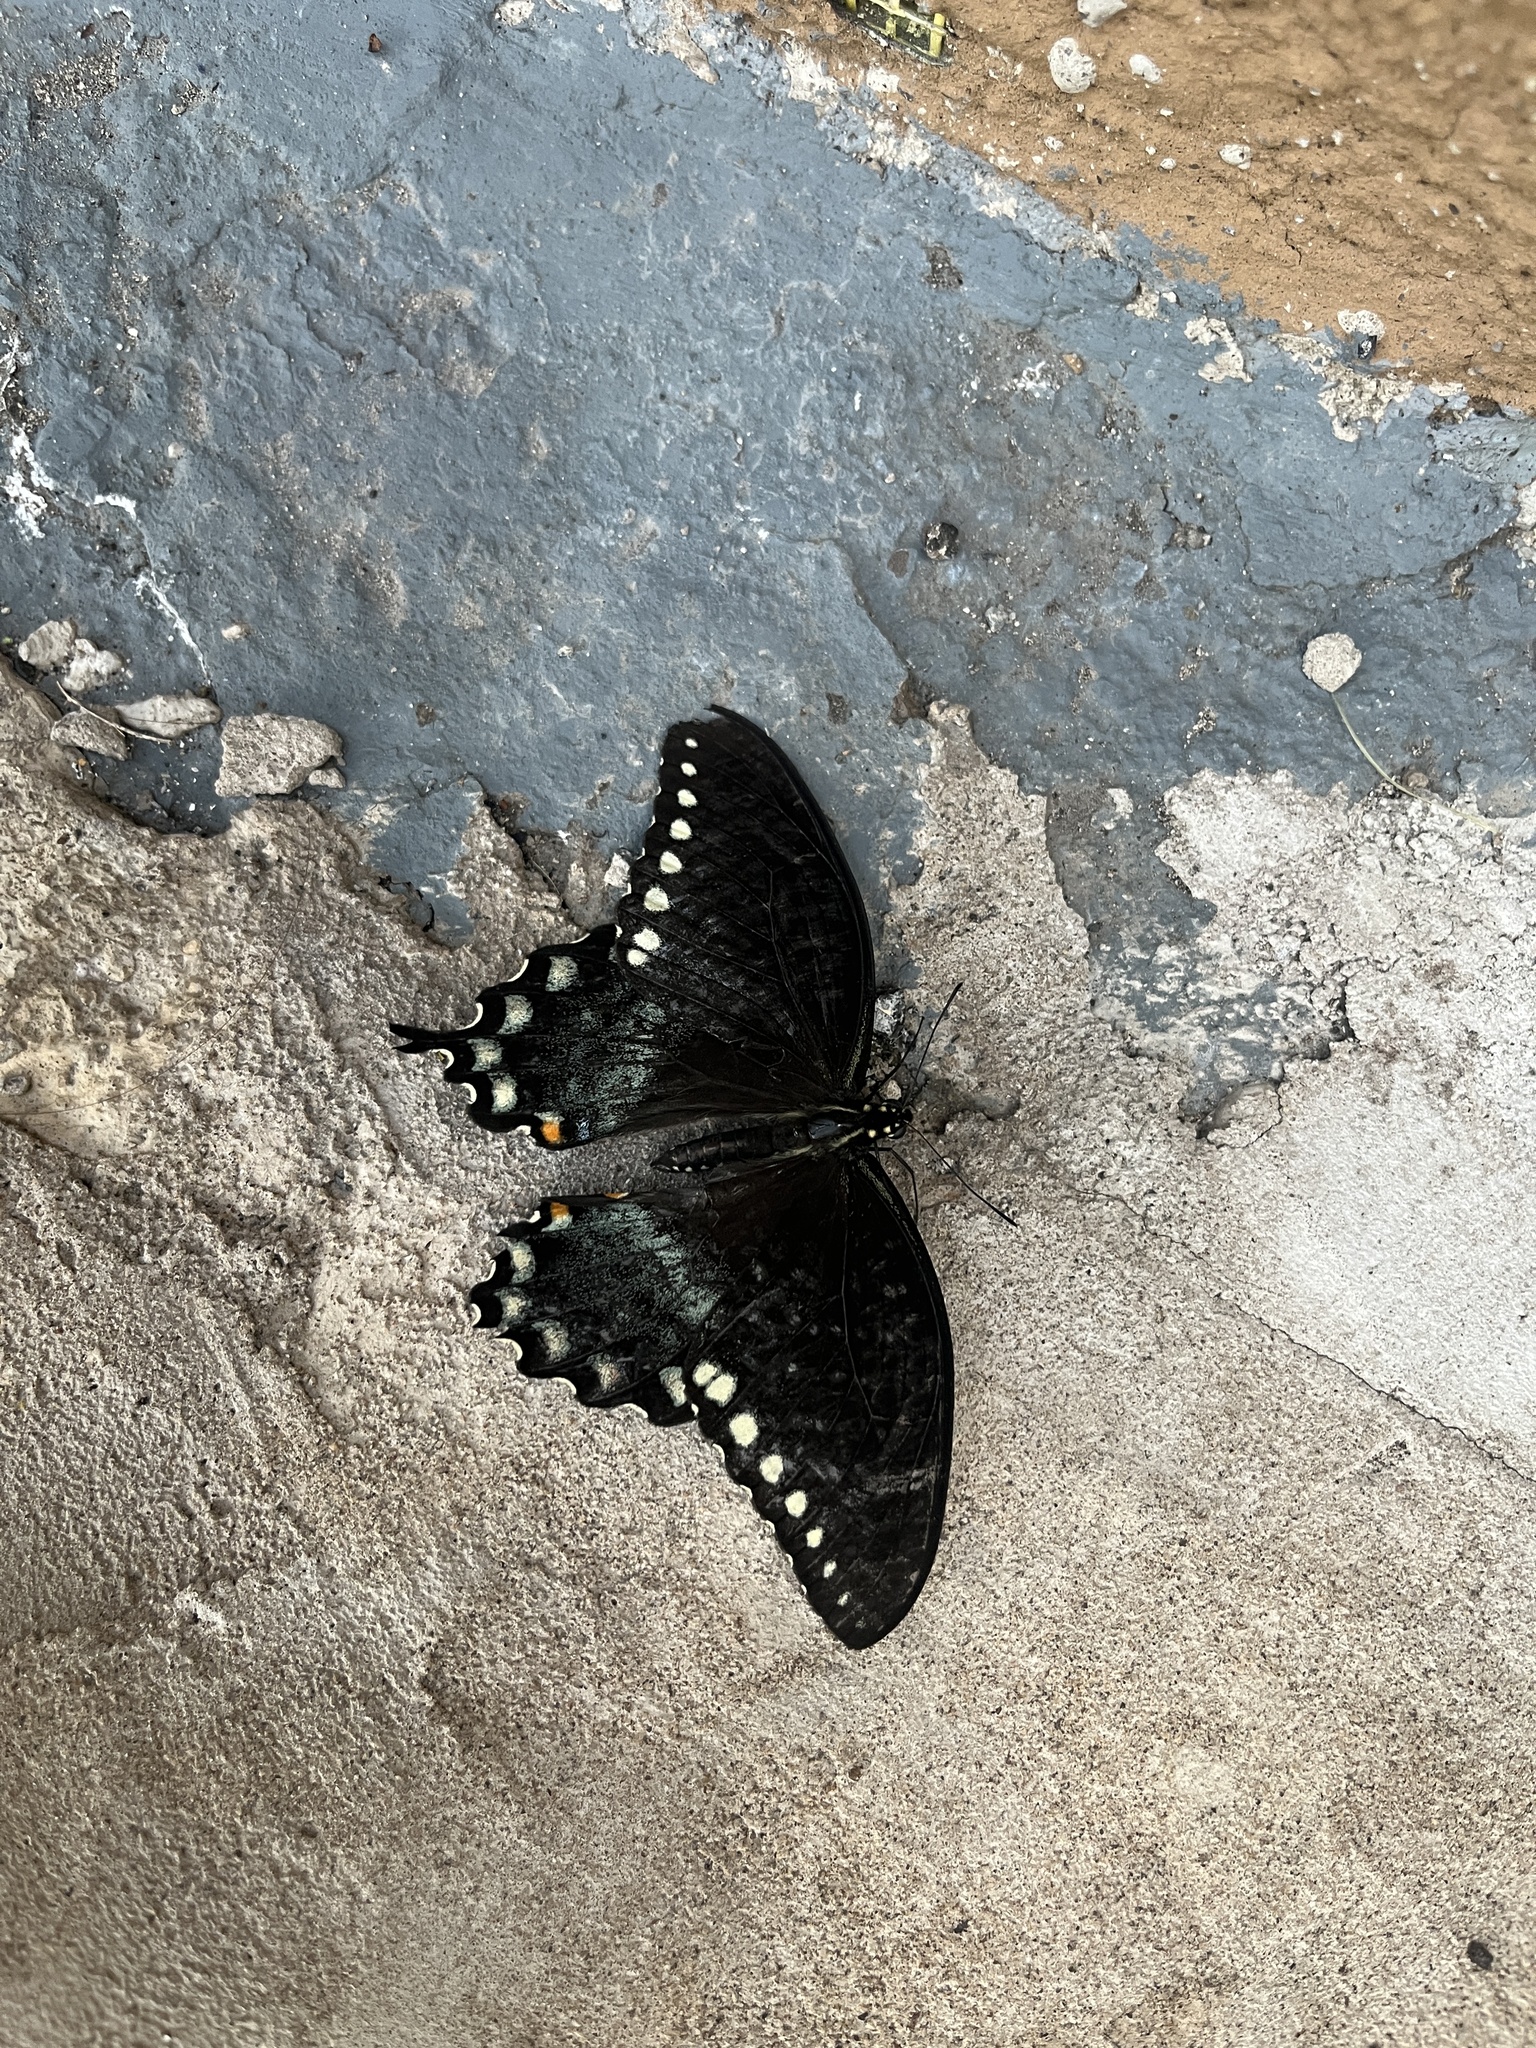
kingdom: Animalia
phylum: Arthropoda
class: Insecta
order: Lepidoptera
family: Papilionidae
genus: Papilio
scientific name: Papilio troilus
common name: Spicebush swallowtail
